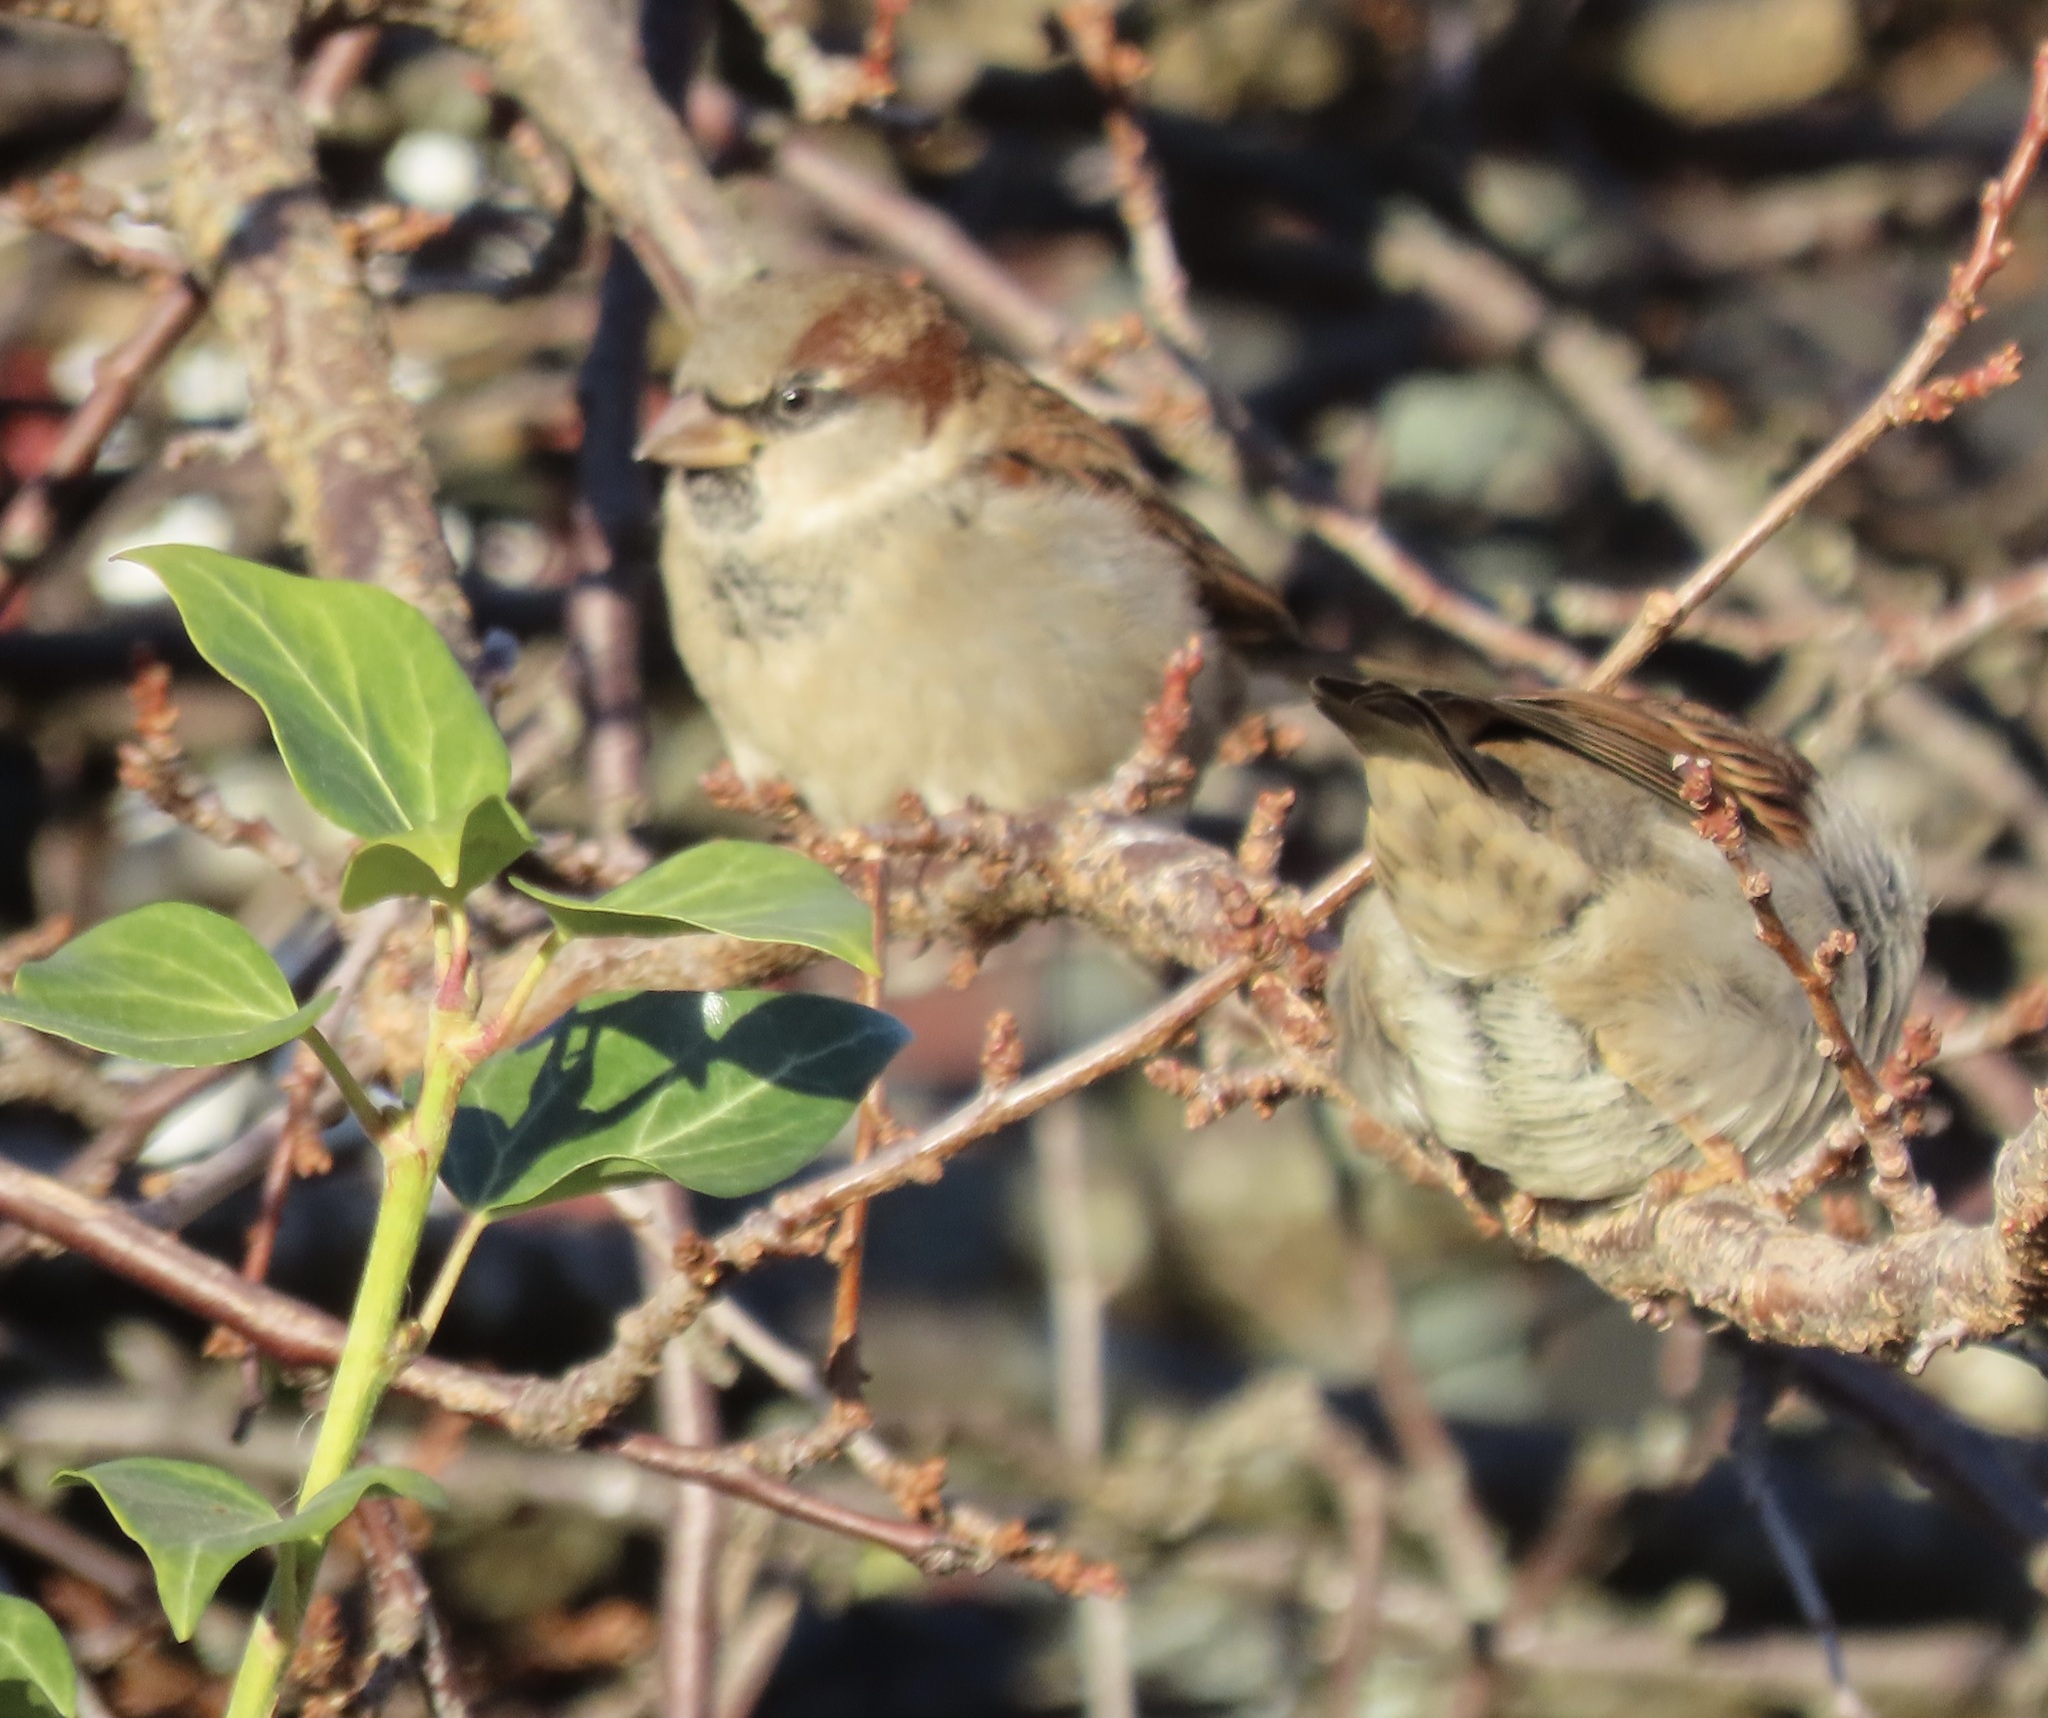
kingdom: Animalia
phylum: Chordata
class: Aves
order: Passeriformes
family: Passeridae
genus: Passer
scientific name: Passer domesticus
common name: House sparrow
